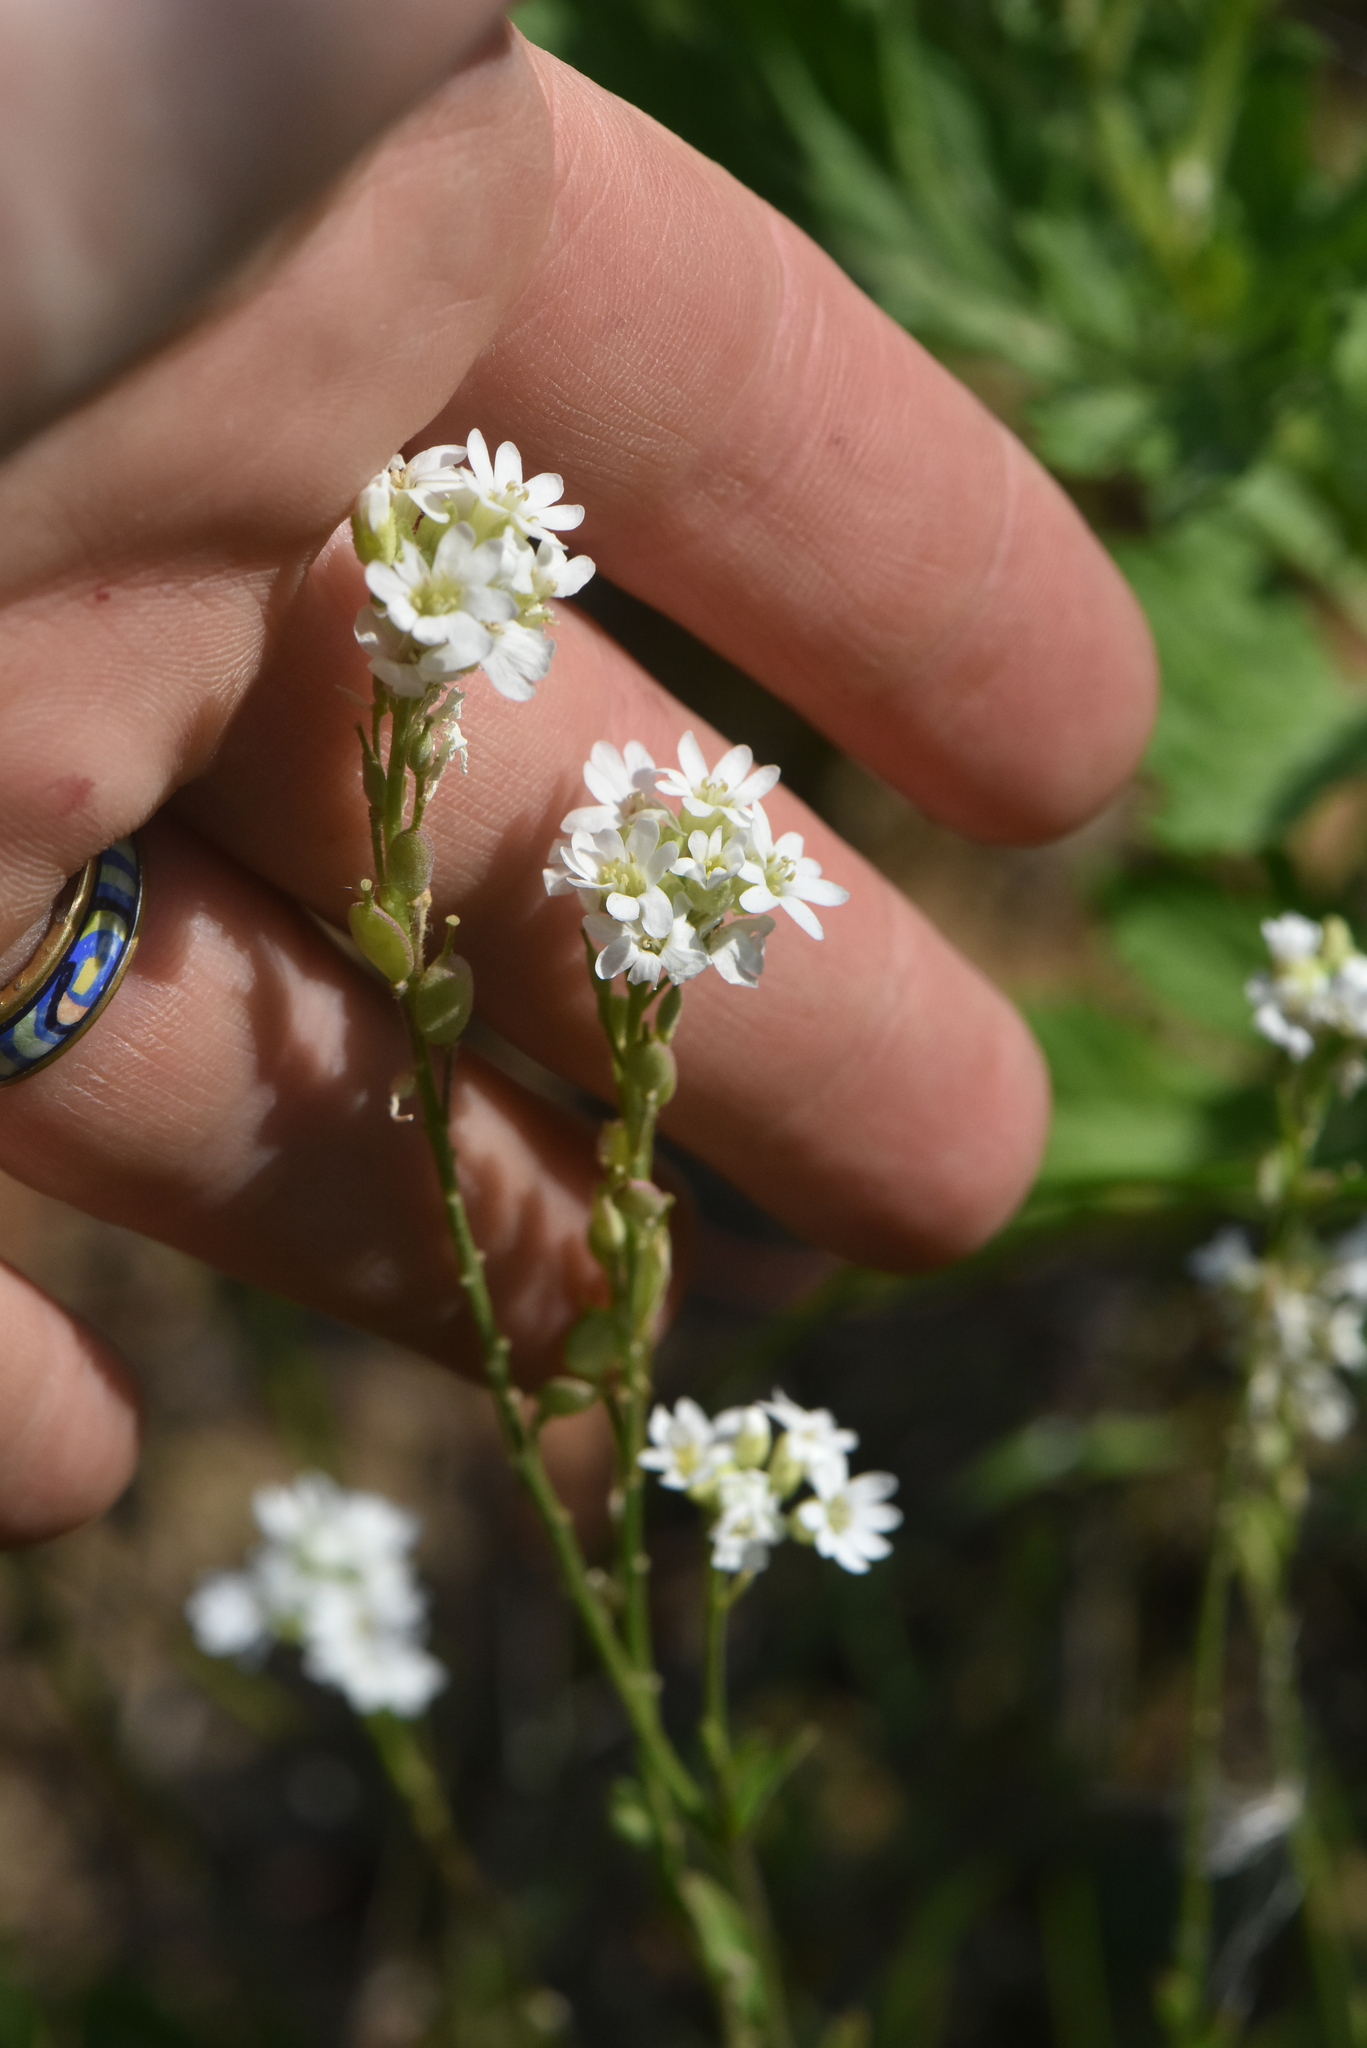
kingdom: Plantae
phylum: Tracheophyta
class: Magnoliopsida
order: Brassicales
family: Brassicaceae
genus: Berteroa
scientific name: Berteroa incana
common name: Hoary alison
